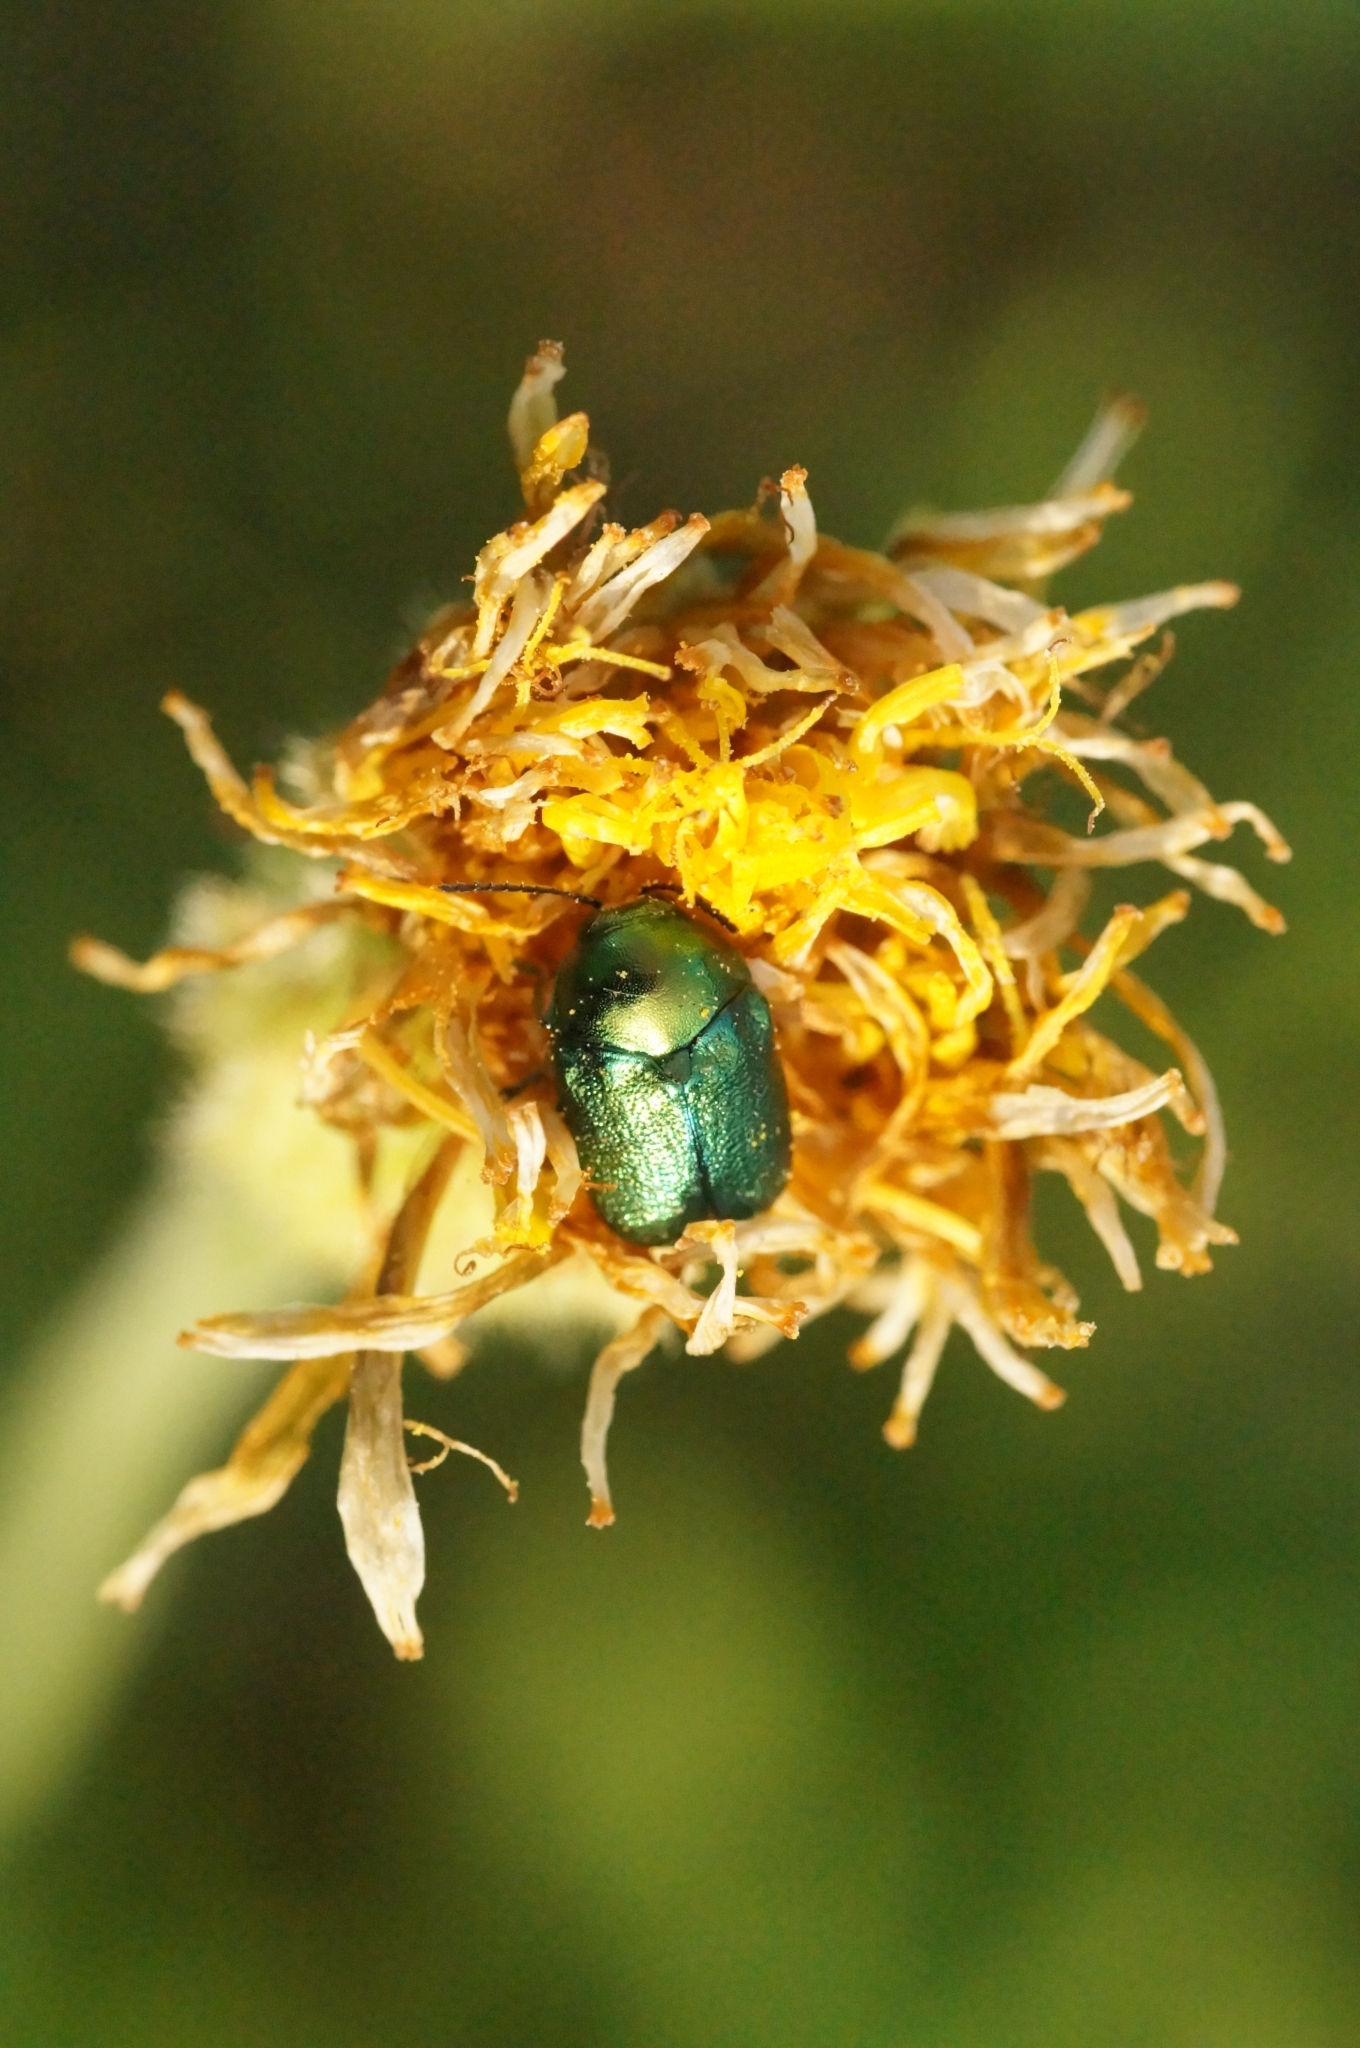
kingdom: Animalia
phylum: Arthropoda
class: Insecta
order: Coleoptera
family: Chrysomelidae
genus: Cryptocephalus
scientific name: Cryptocephalus
